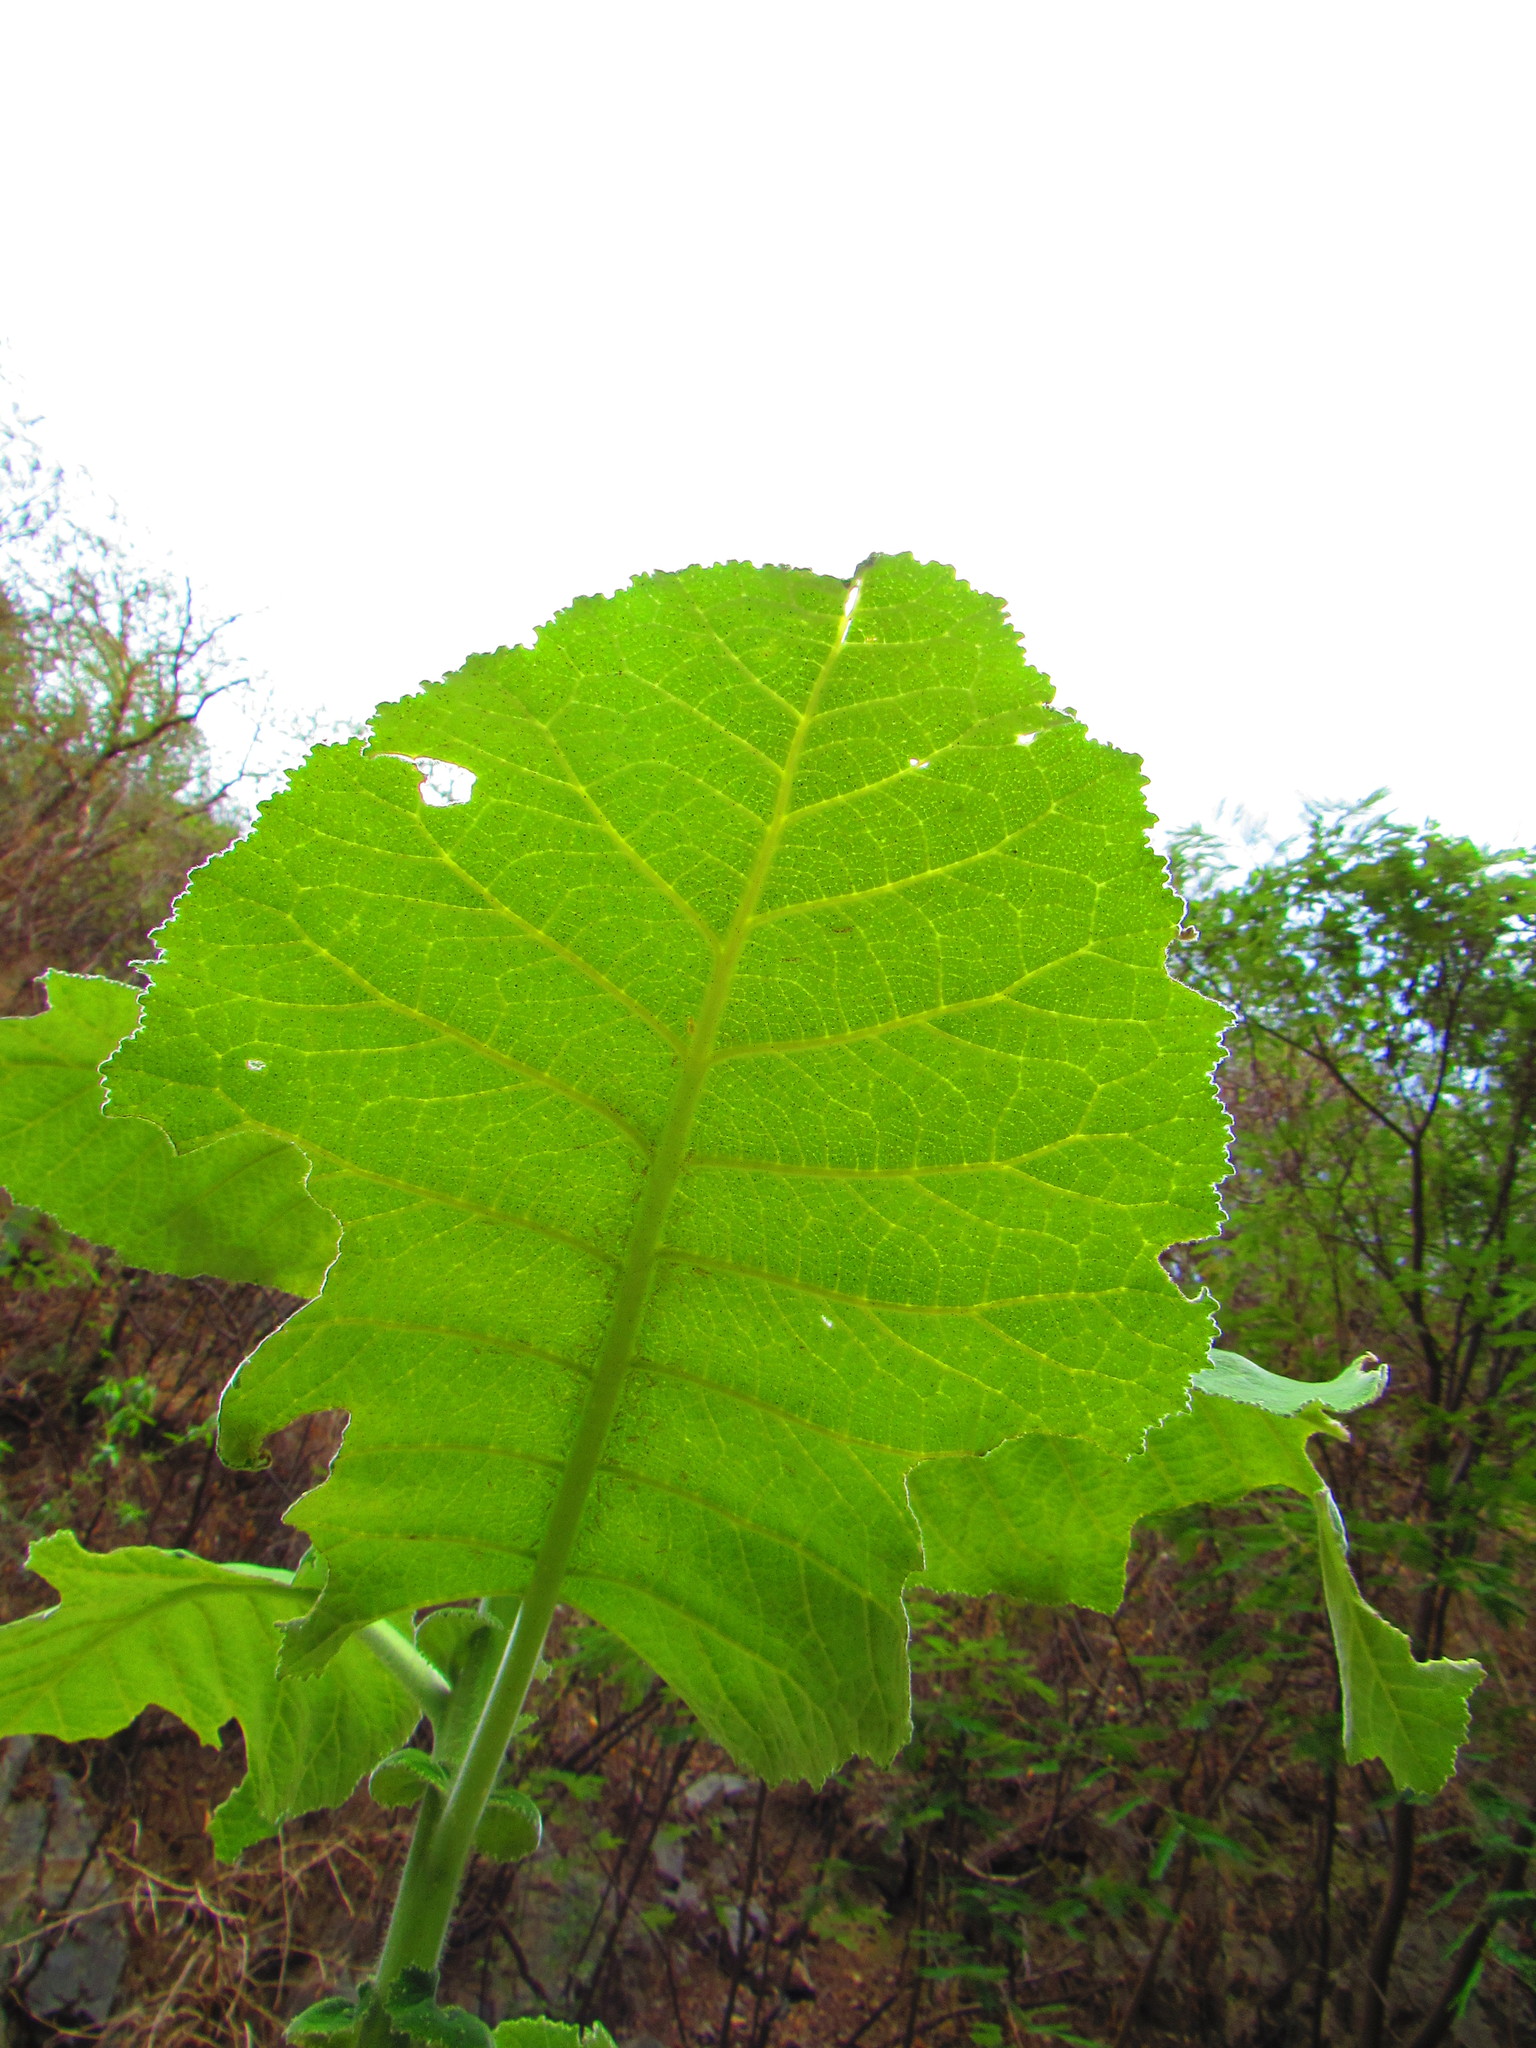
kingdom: Plantae
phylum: Tracheophyta
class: Magnoliopsida
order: Boraginales
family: Namaceae
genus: Wigandia
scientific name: Wigandia urens
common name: Caracus wigandia
